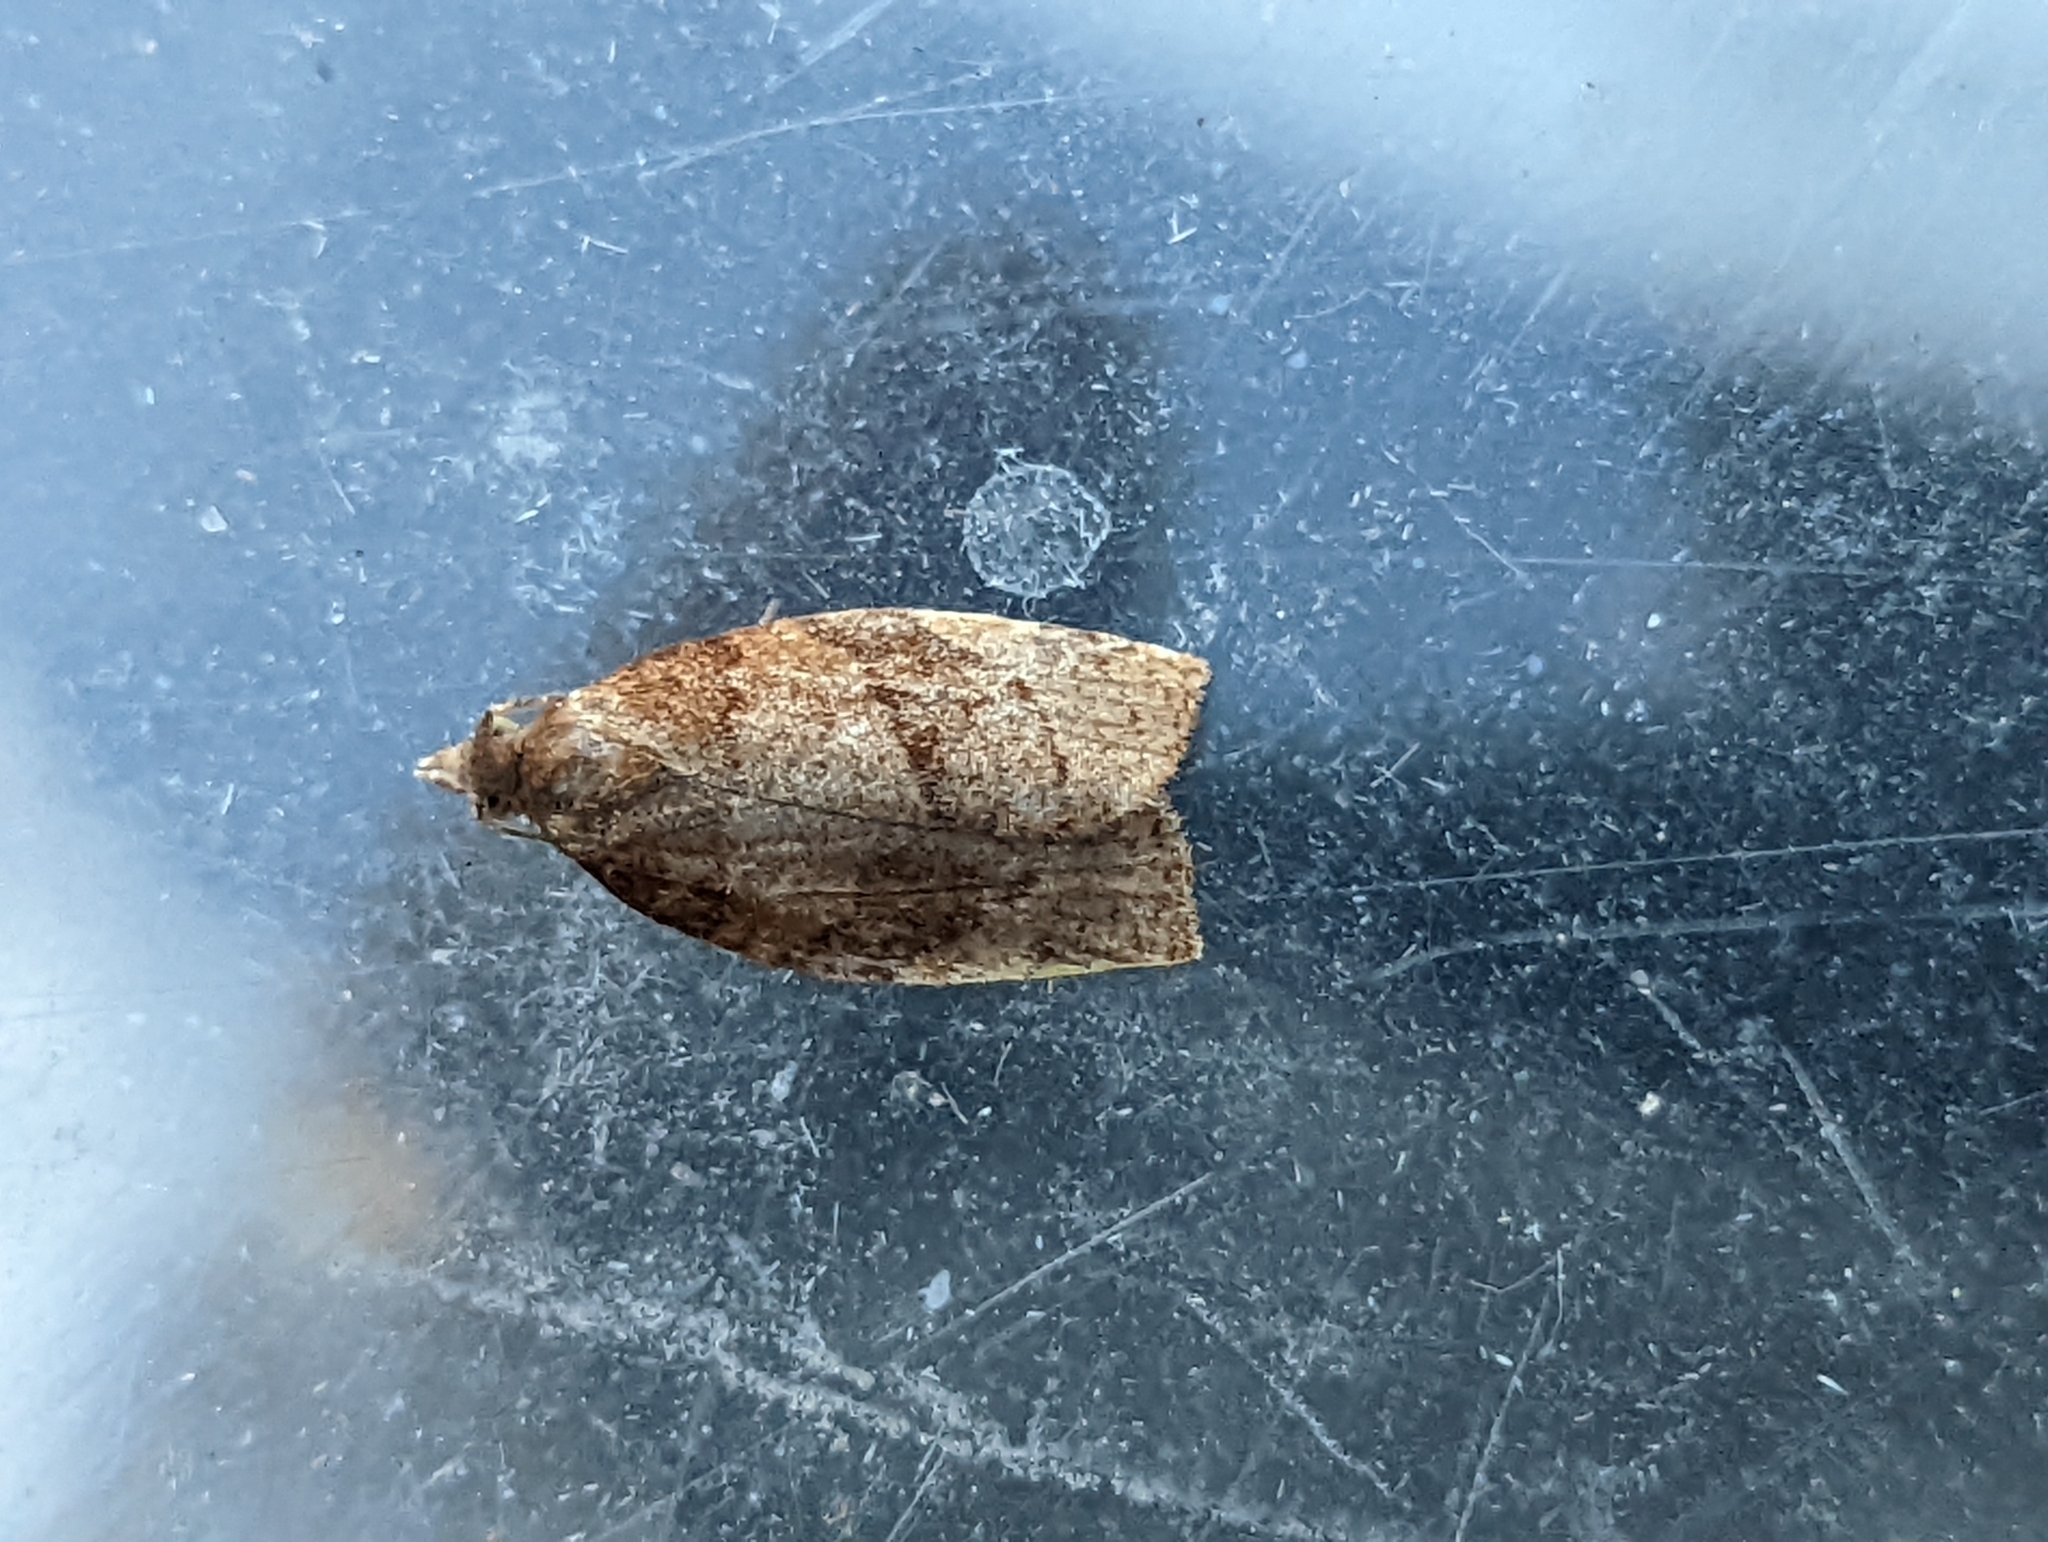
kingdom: Animalia
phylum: Arthropoda
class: Insecta
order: Lepidoptera
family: Tortricidae
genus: Pandemis
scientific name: Pandemis cerasana
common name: Barred fruit-tree tortrix
